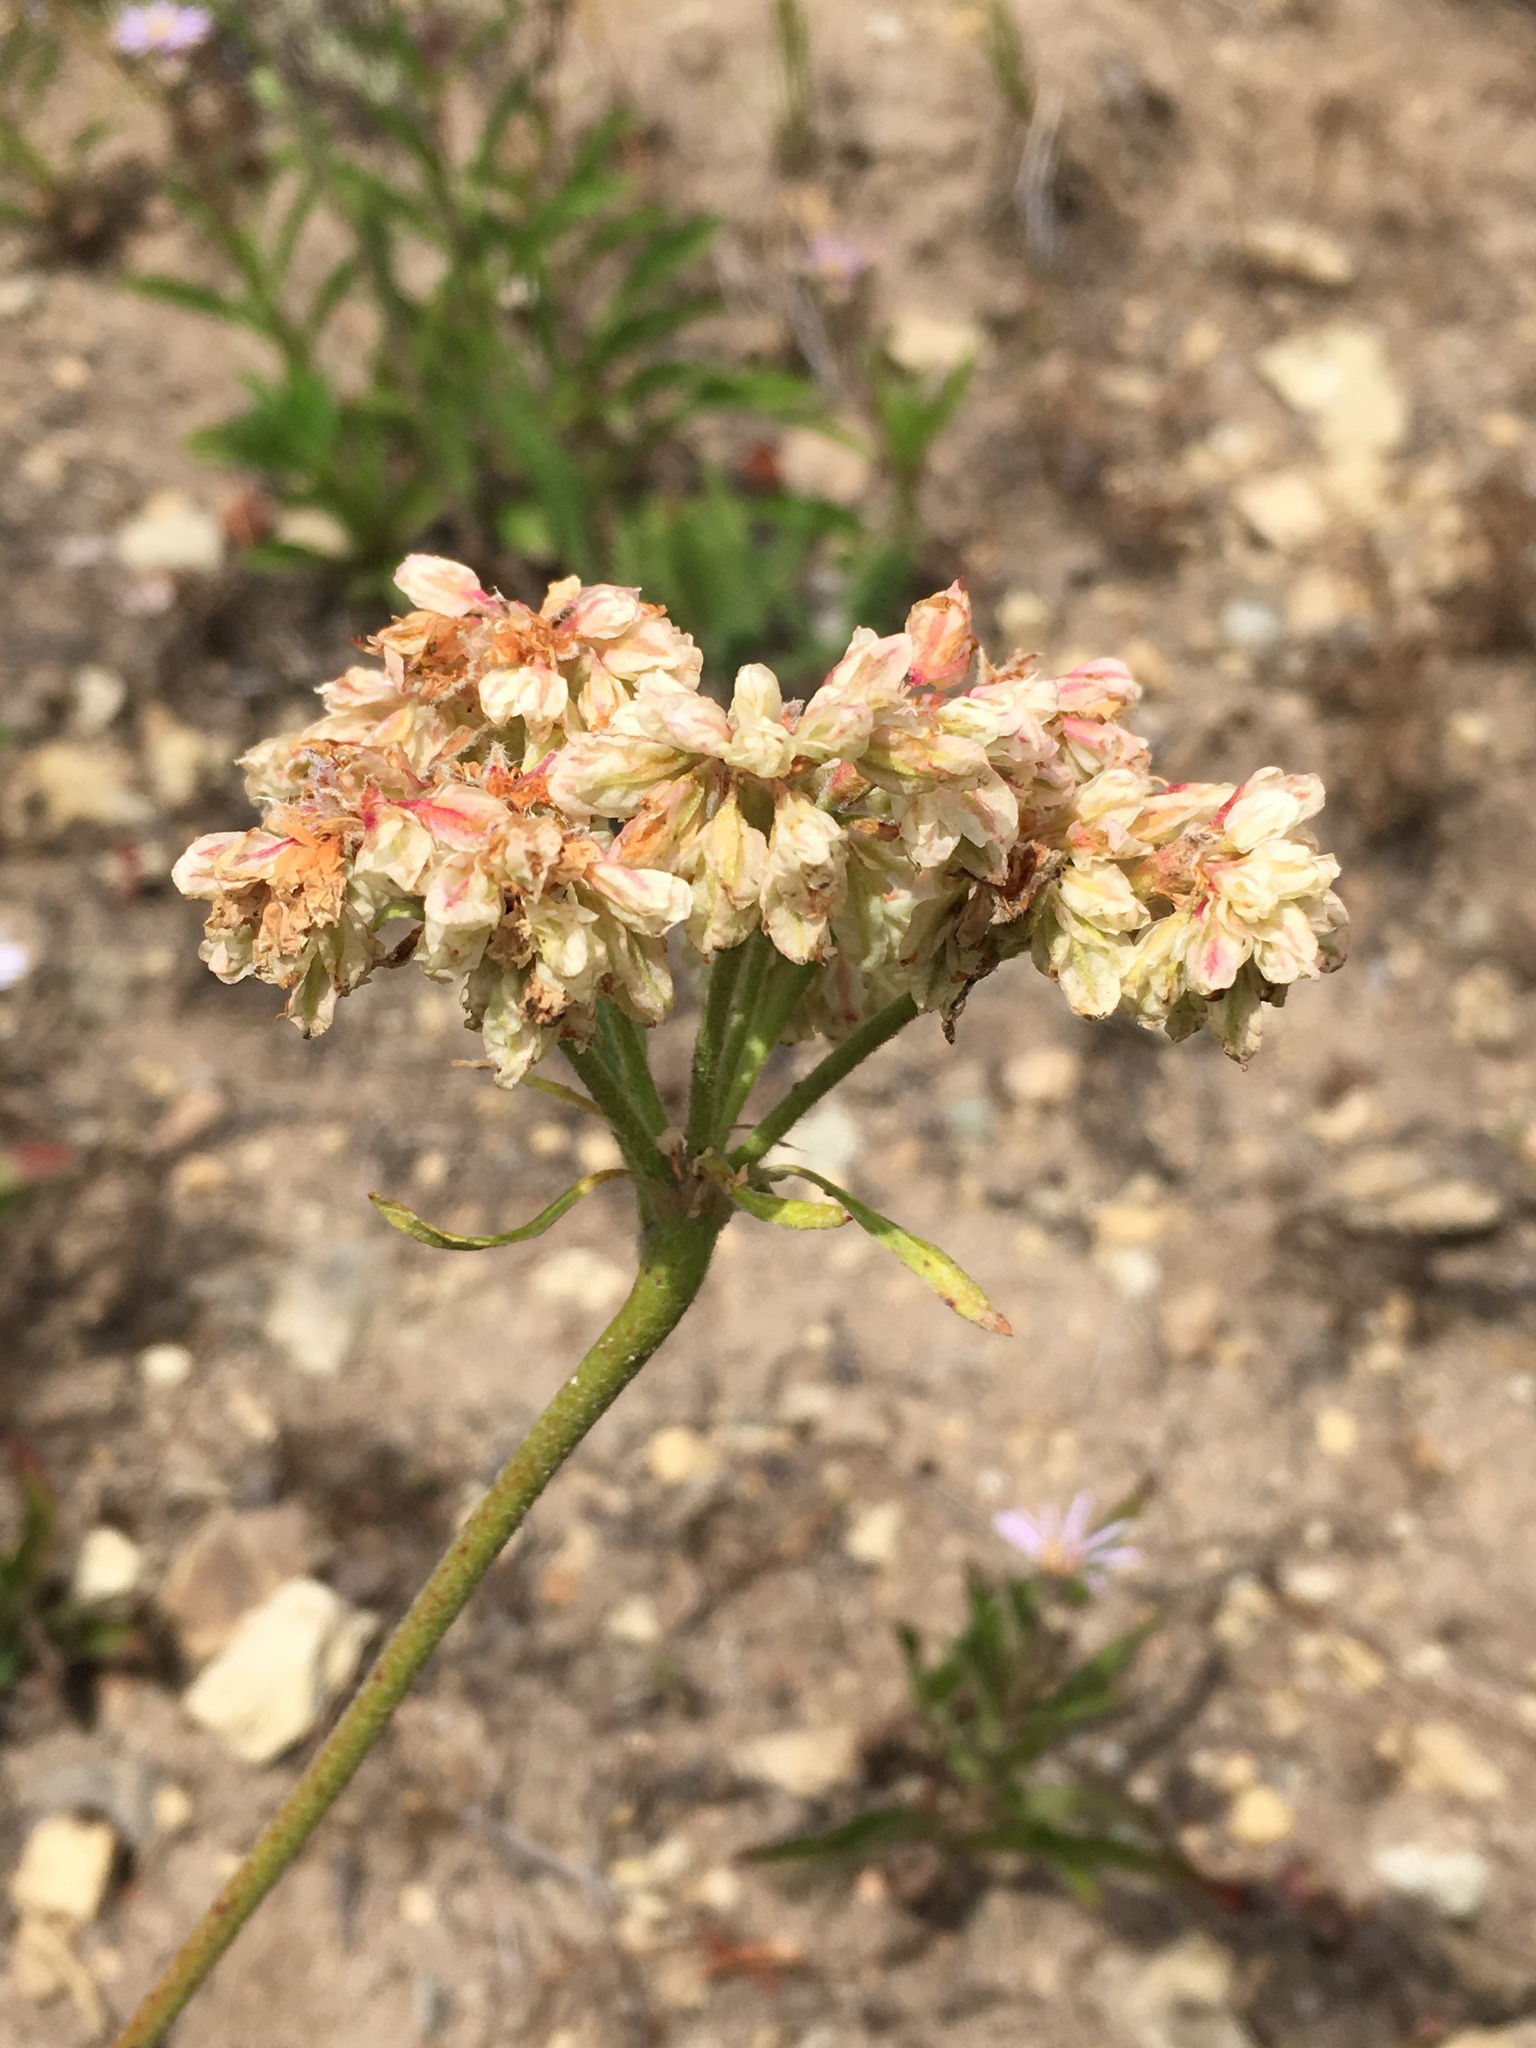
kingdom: Plantae
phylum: Tracheophyta
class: Magnoliopsida
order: Caryophyllales
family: Polygonaceae
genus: Eriogonum
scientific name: Eriogonum compositum
